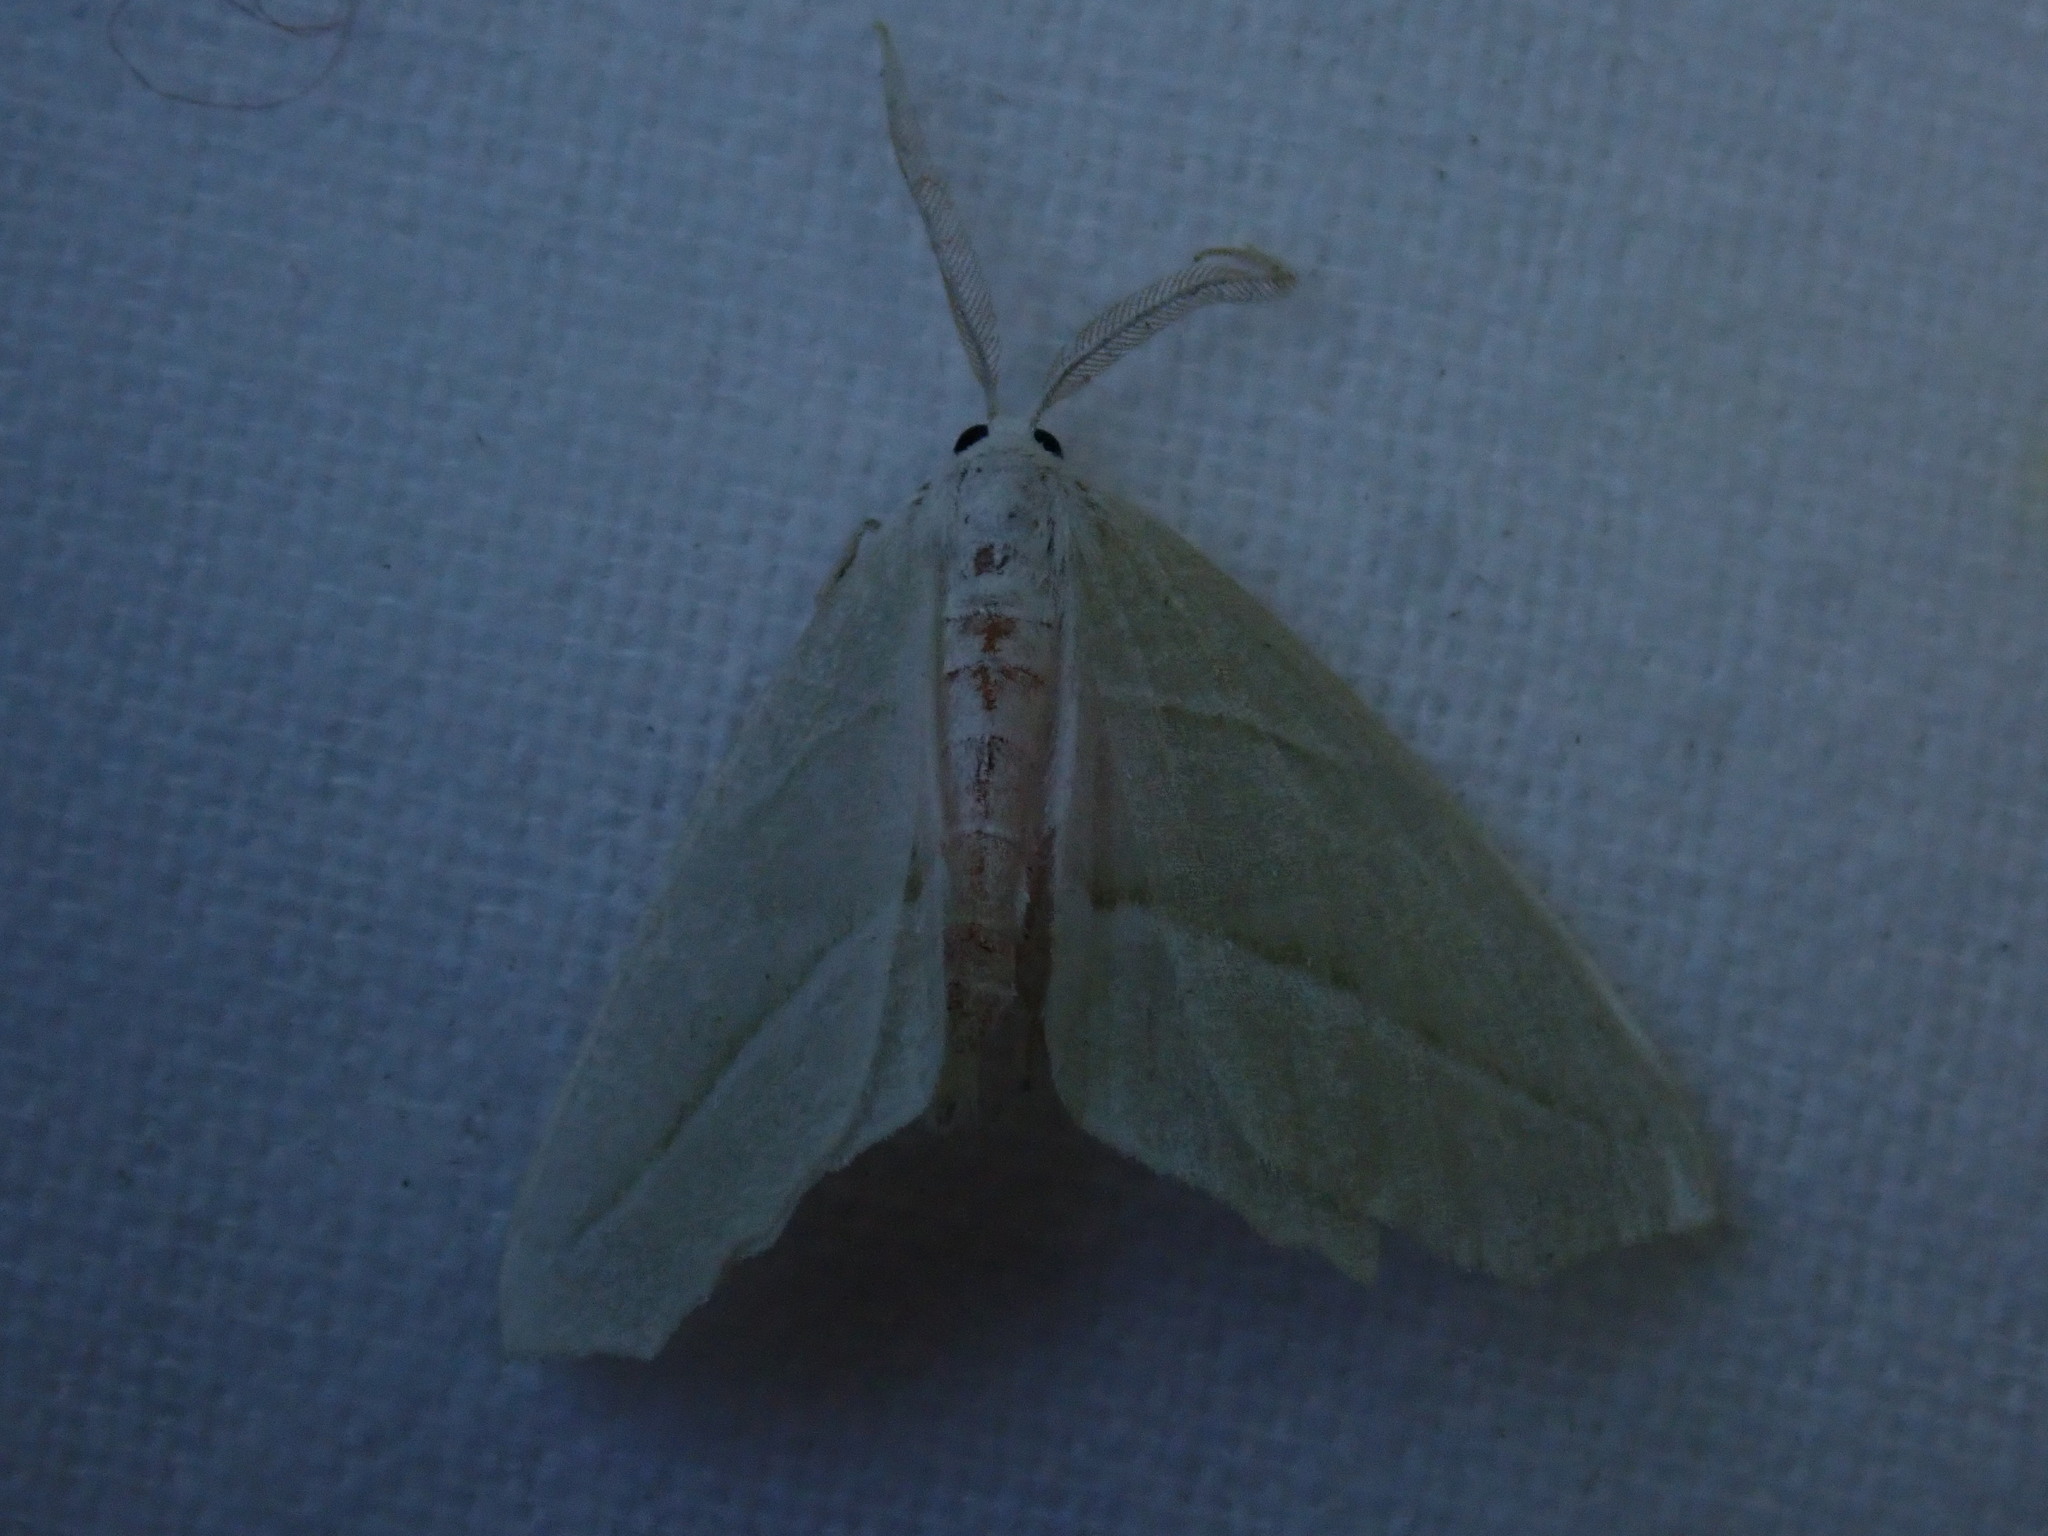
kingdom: Animalia
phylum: Arthropoda
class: Insecta
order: Lepidoptera
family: Geometridae
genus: Campaea
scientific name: Campaea perlata
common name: Fringed looper
